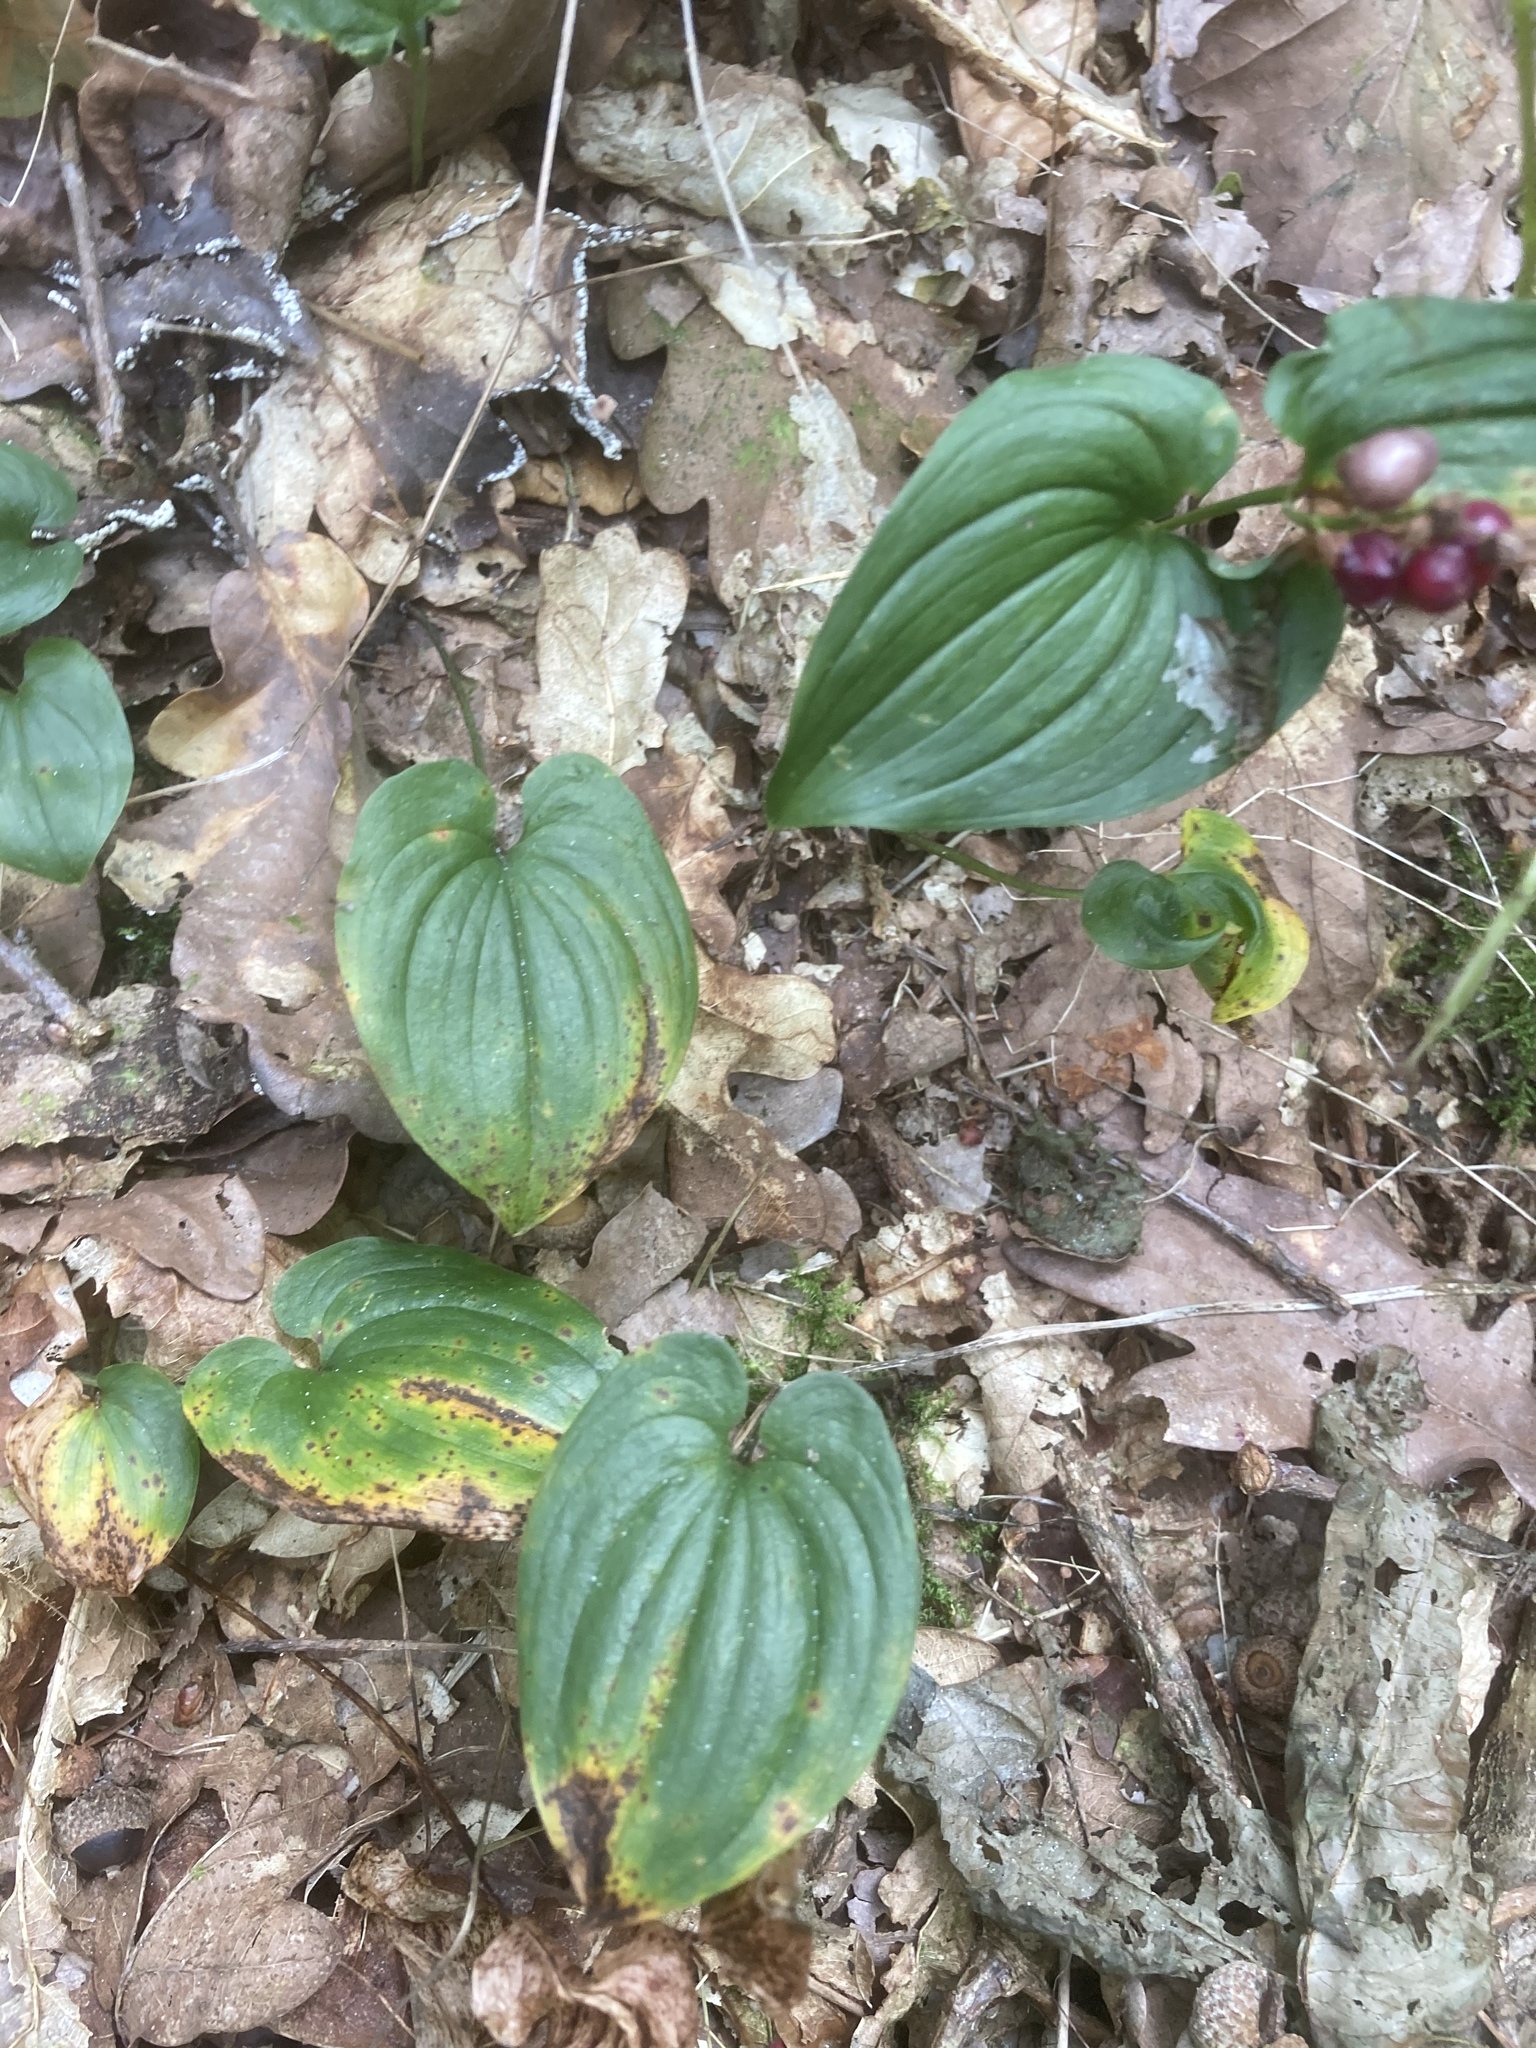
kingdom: Plantae
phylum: Tracheophyta
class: Liliopsida
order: Asparagales
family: Asparagaceae
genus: Maianthemum
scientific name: Maianthemum bifolium
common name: May lily
